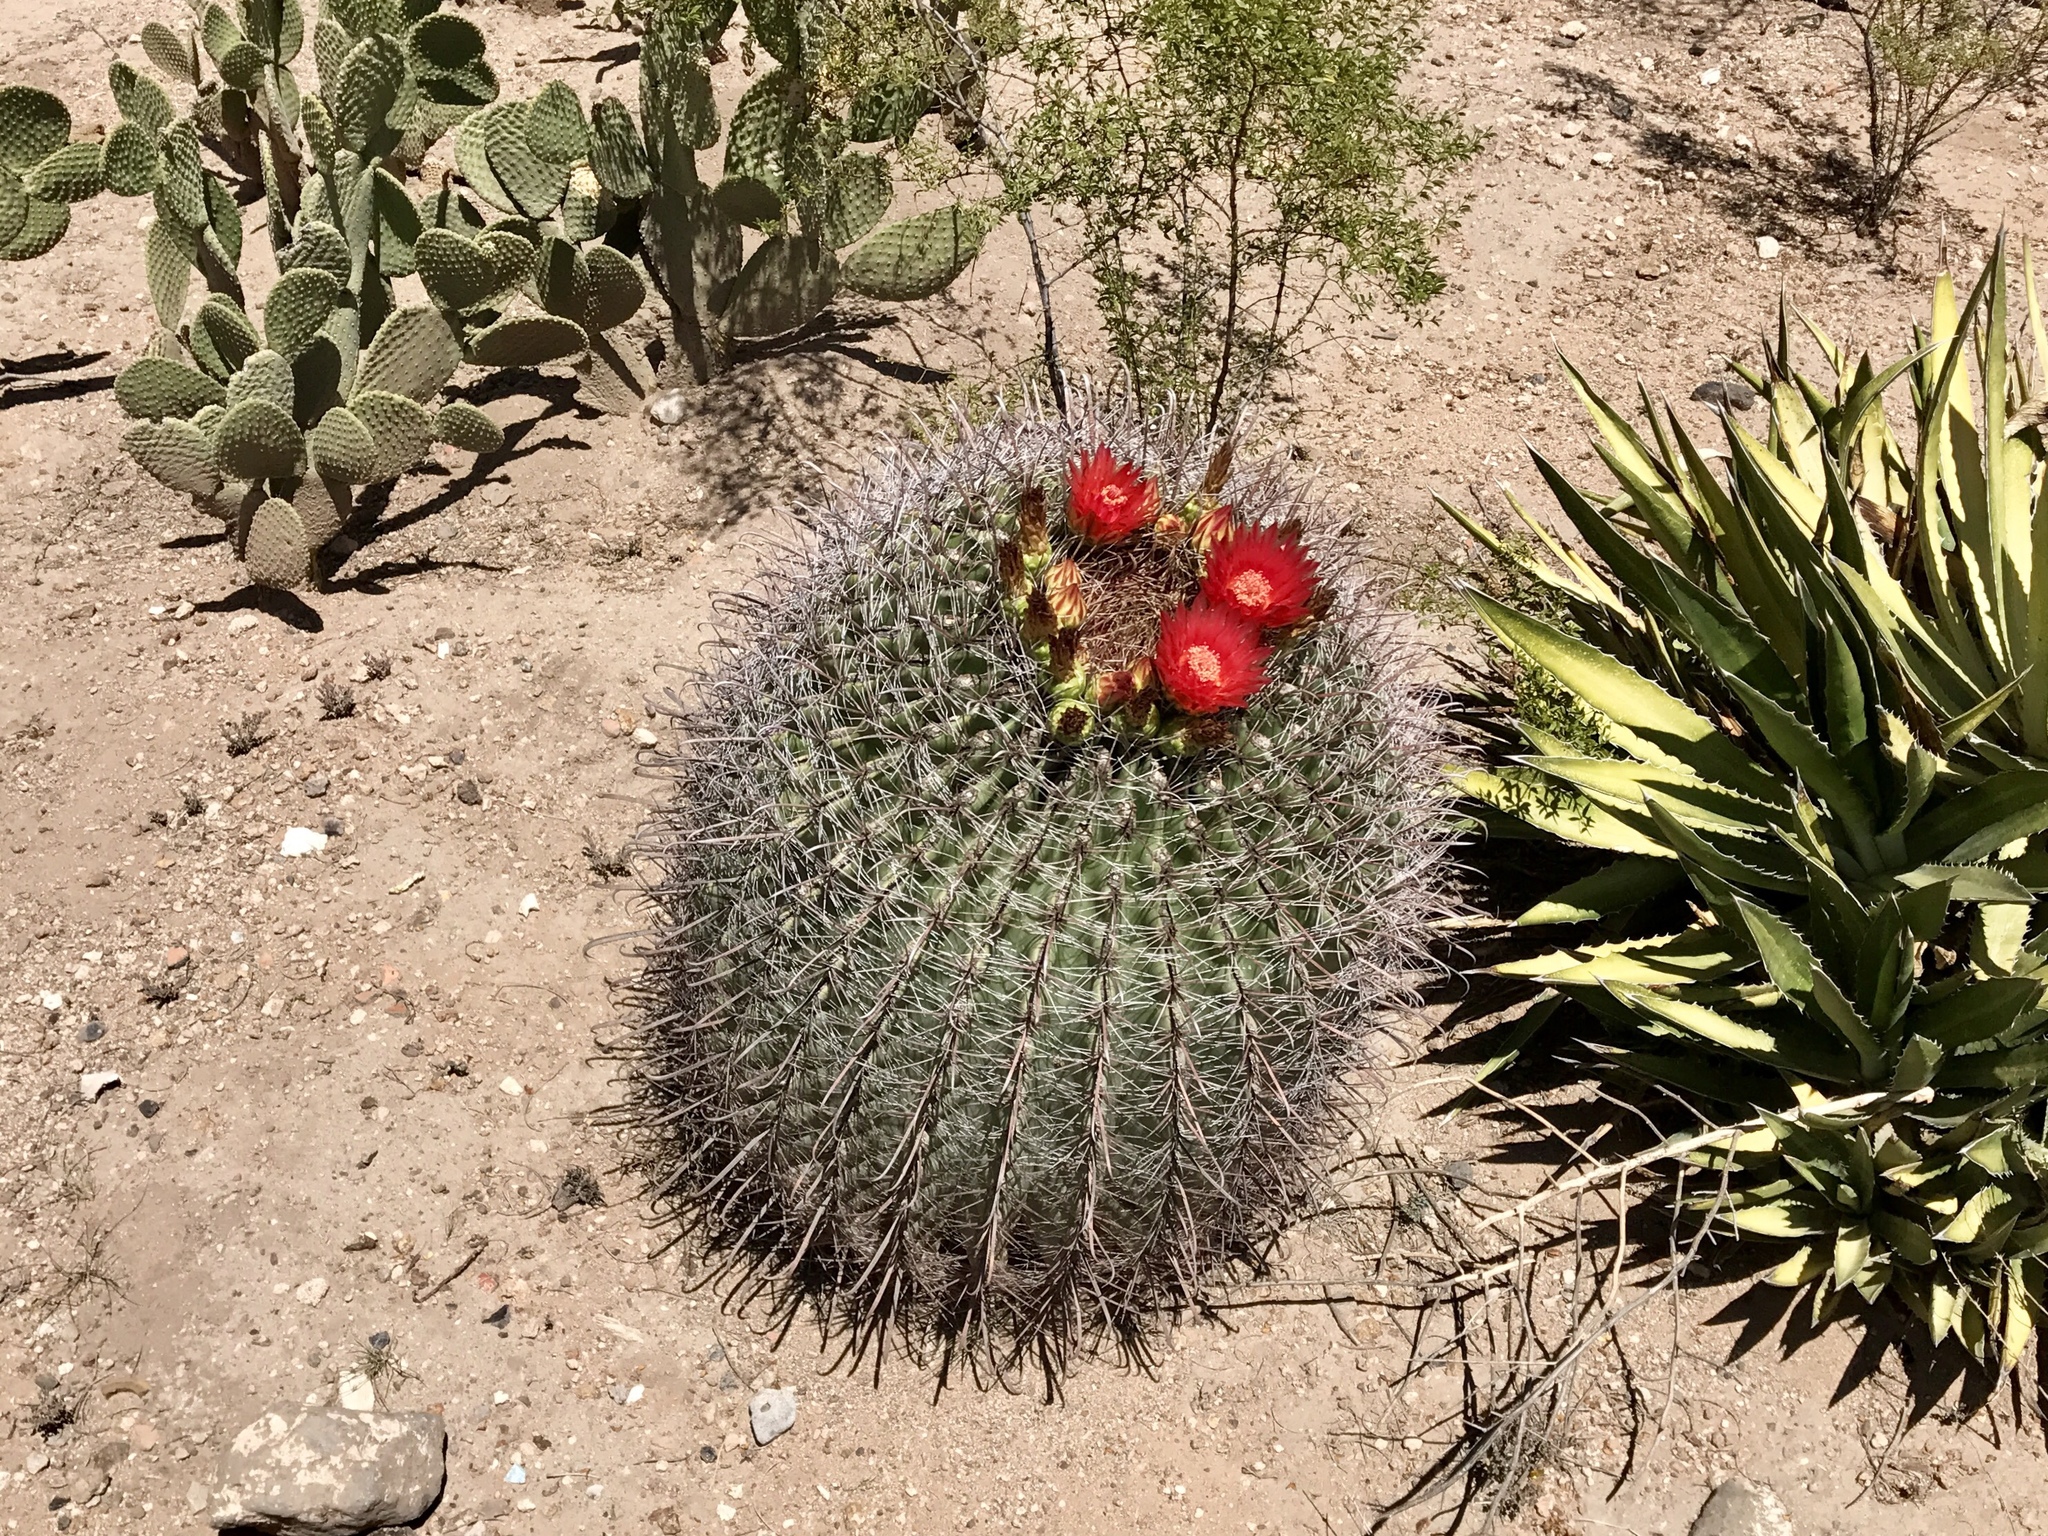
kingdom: Plantae
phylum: Tracheophyta
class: Magnoliopsida
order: Caryophyllales
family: Cactaceae
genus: Ferocactus
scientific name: Ferocactus wislizeni
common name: Candy barrel cactus
